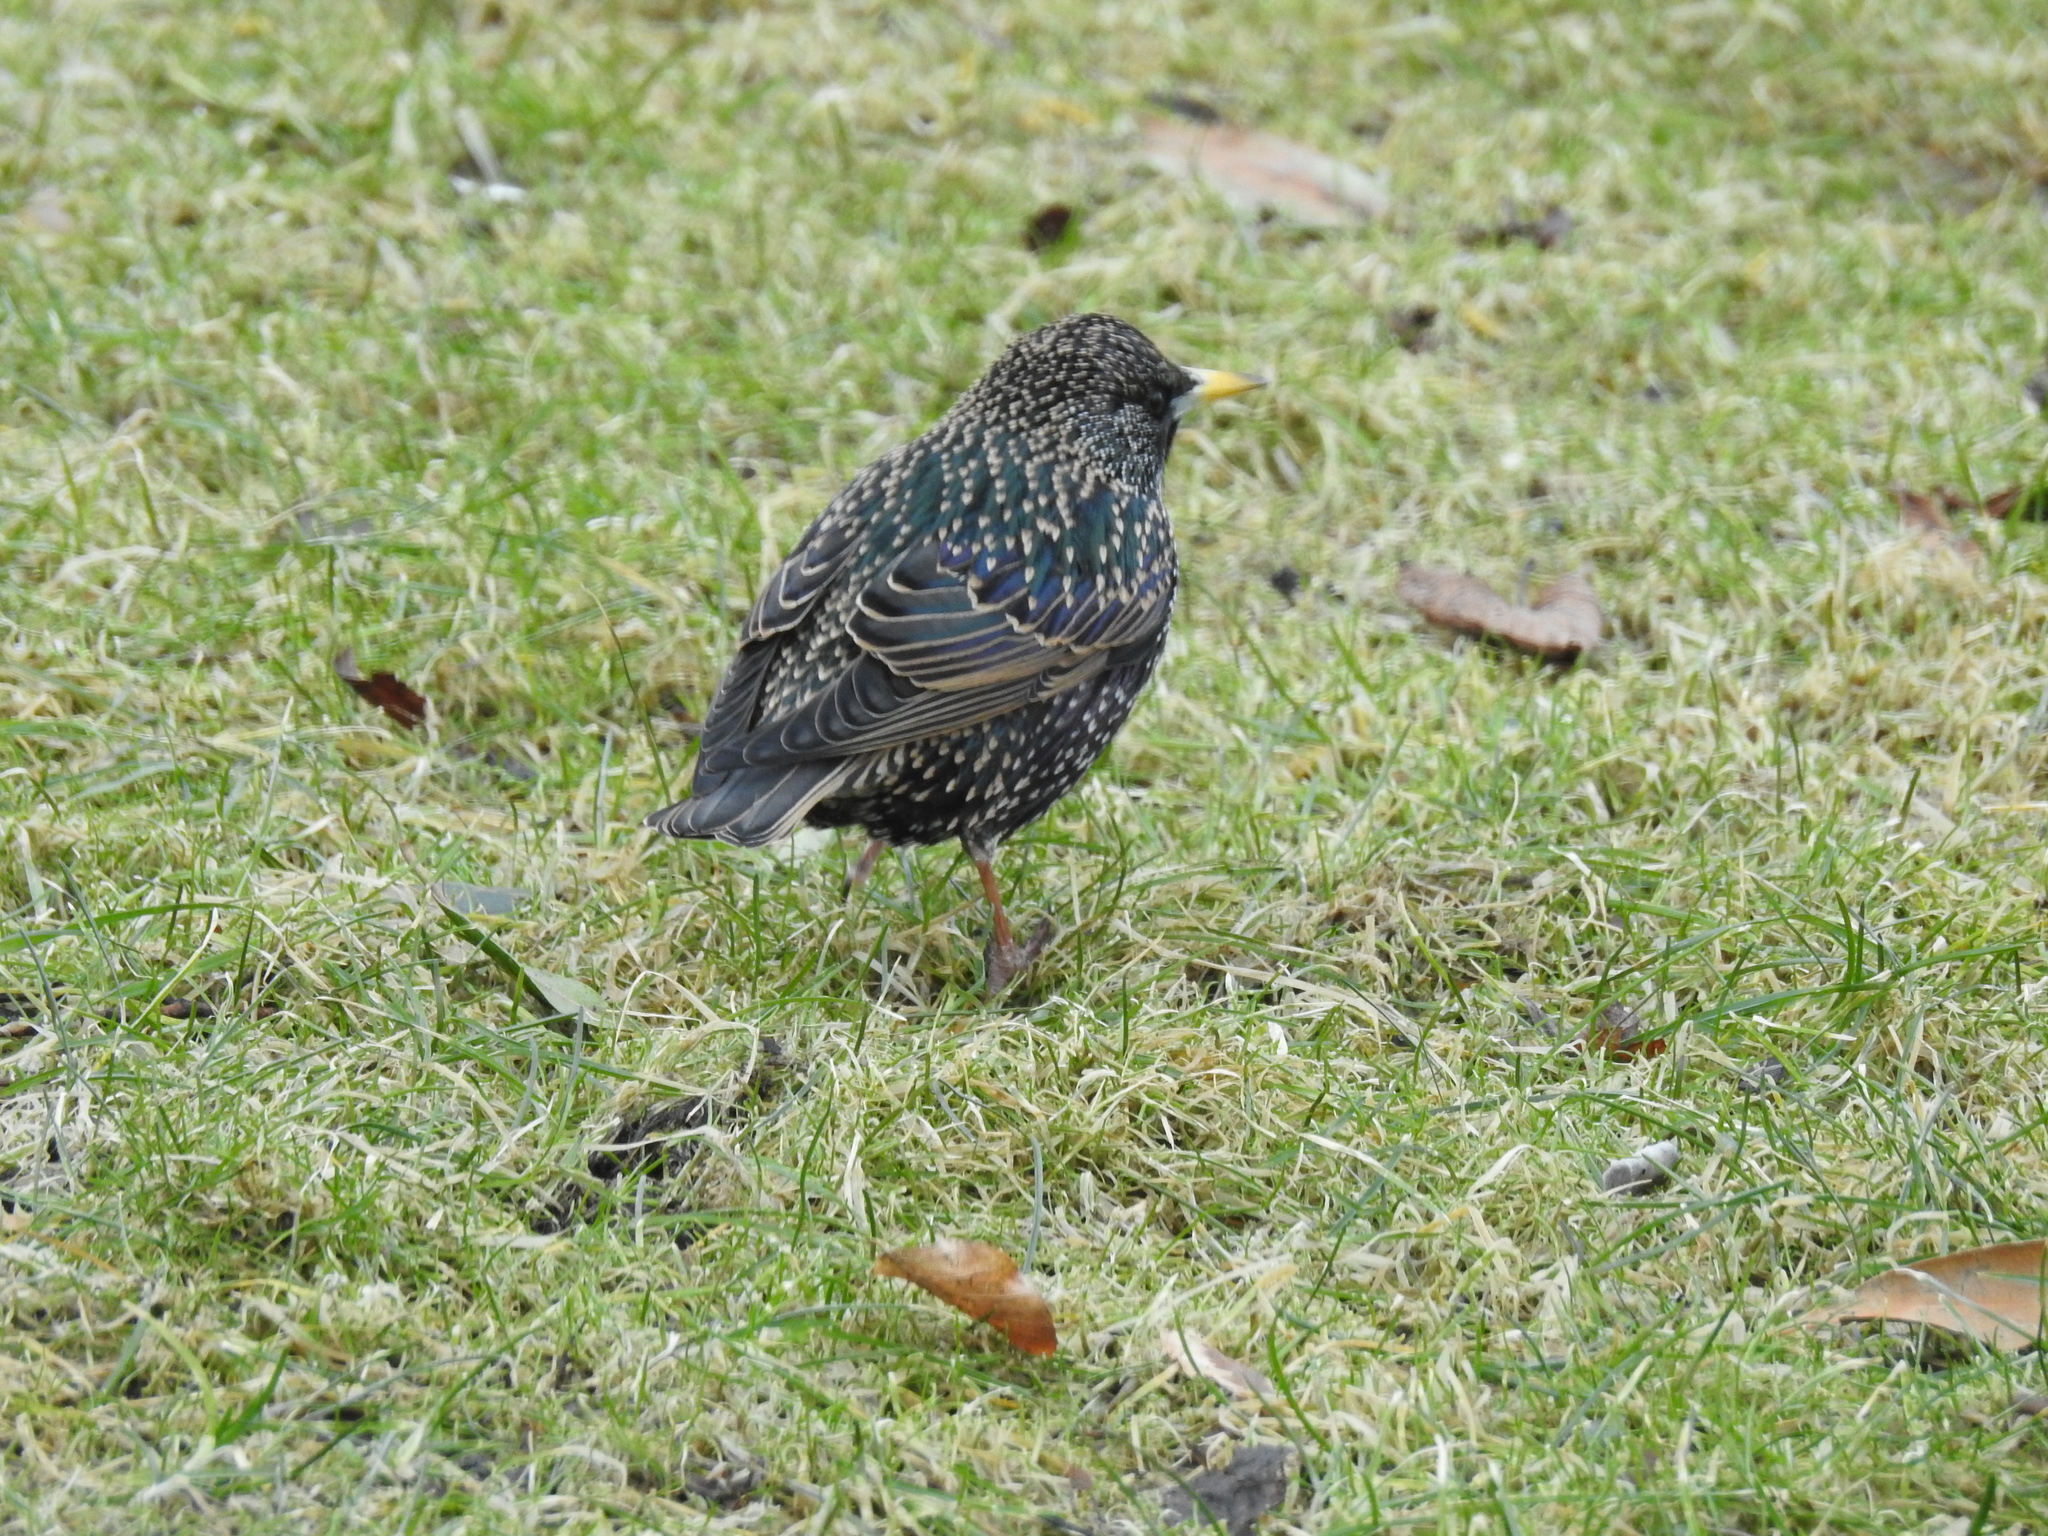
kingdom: Animalia
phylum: Chordata
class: Aves
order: Passeriformes
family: Sturnidae
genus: Sturnus
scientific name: Sturnus vulgaris
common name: Common starling
